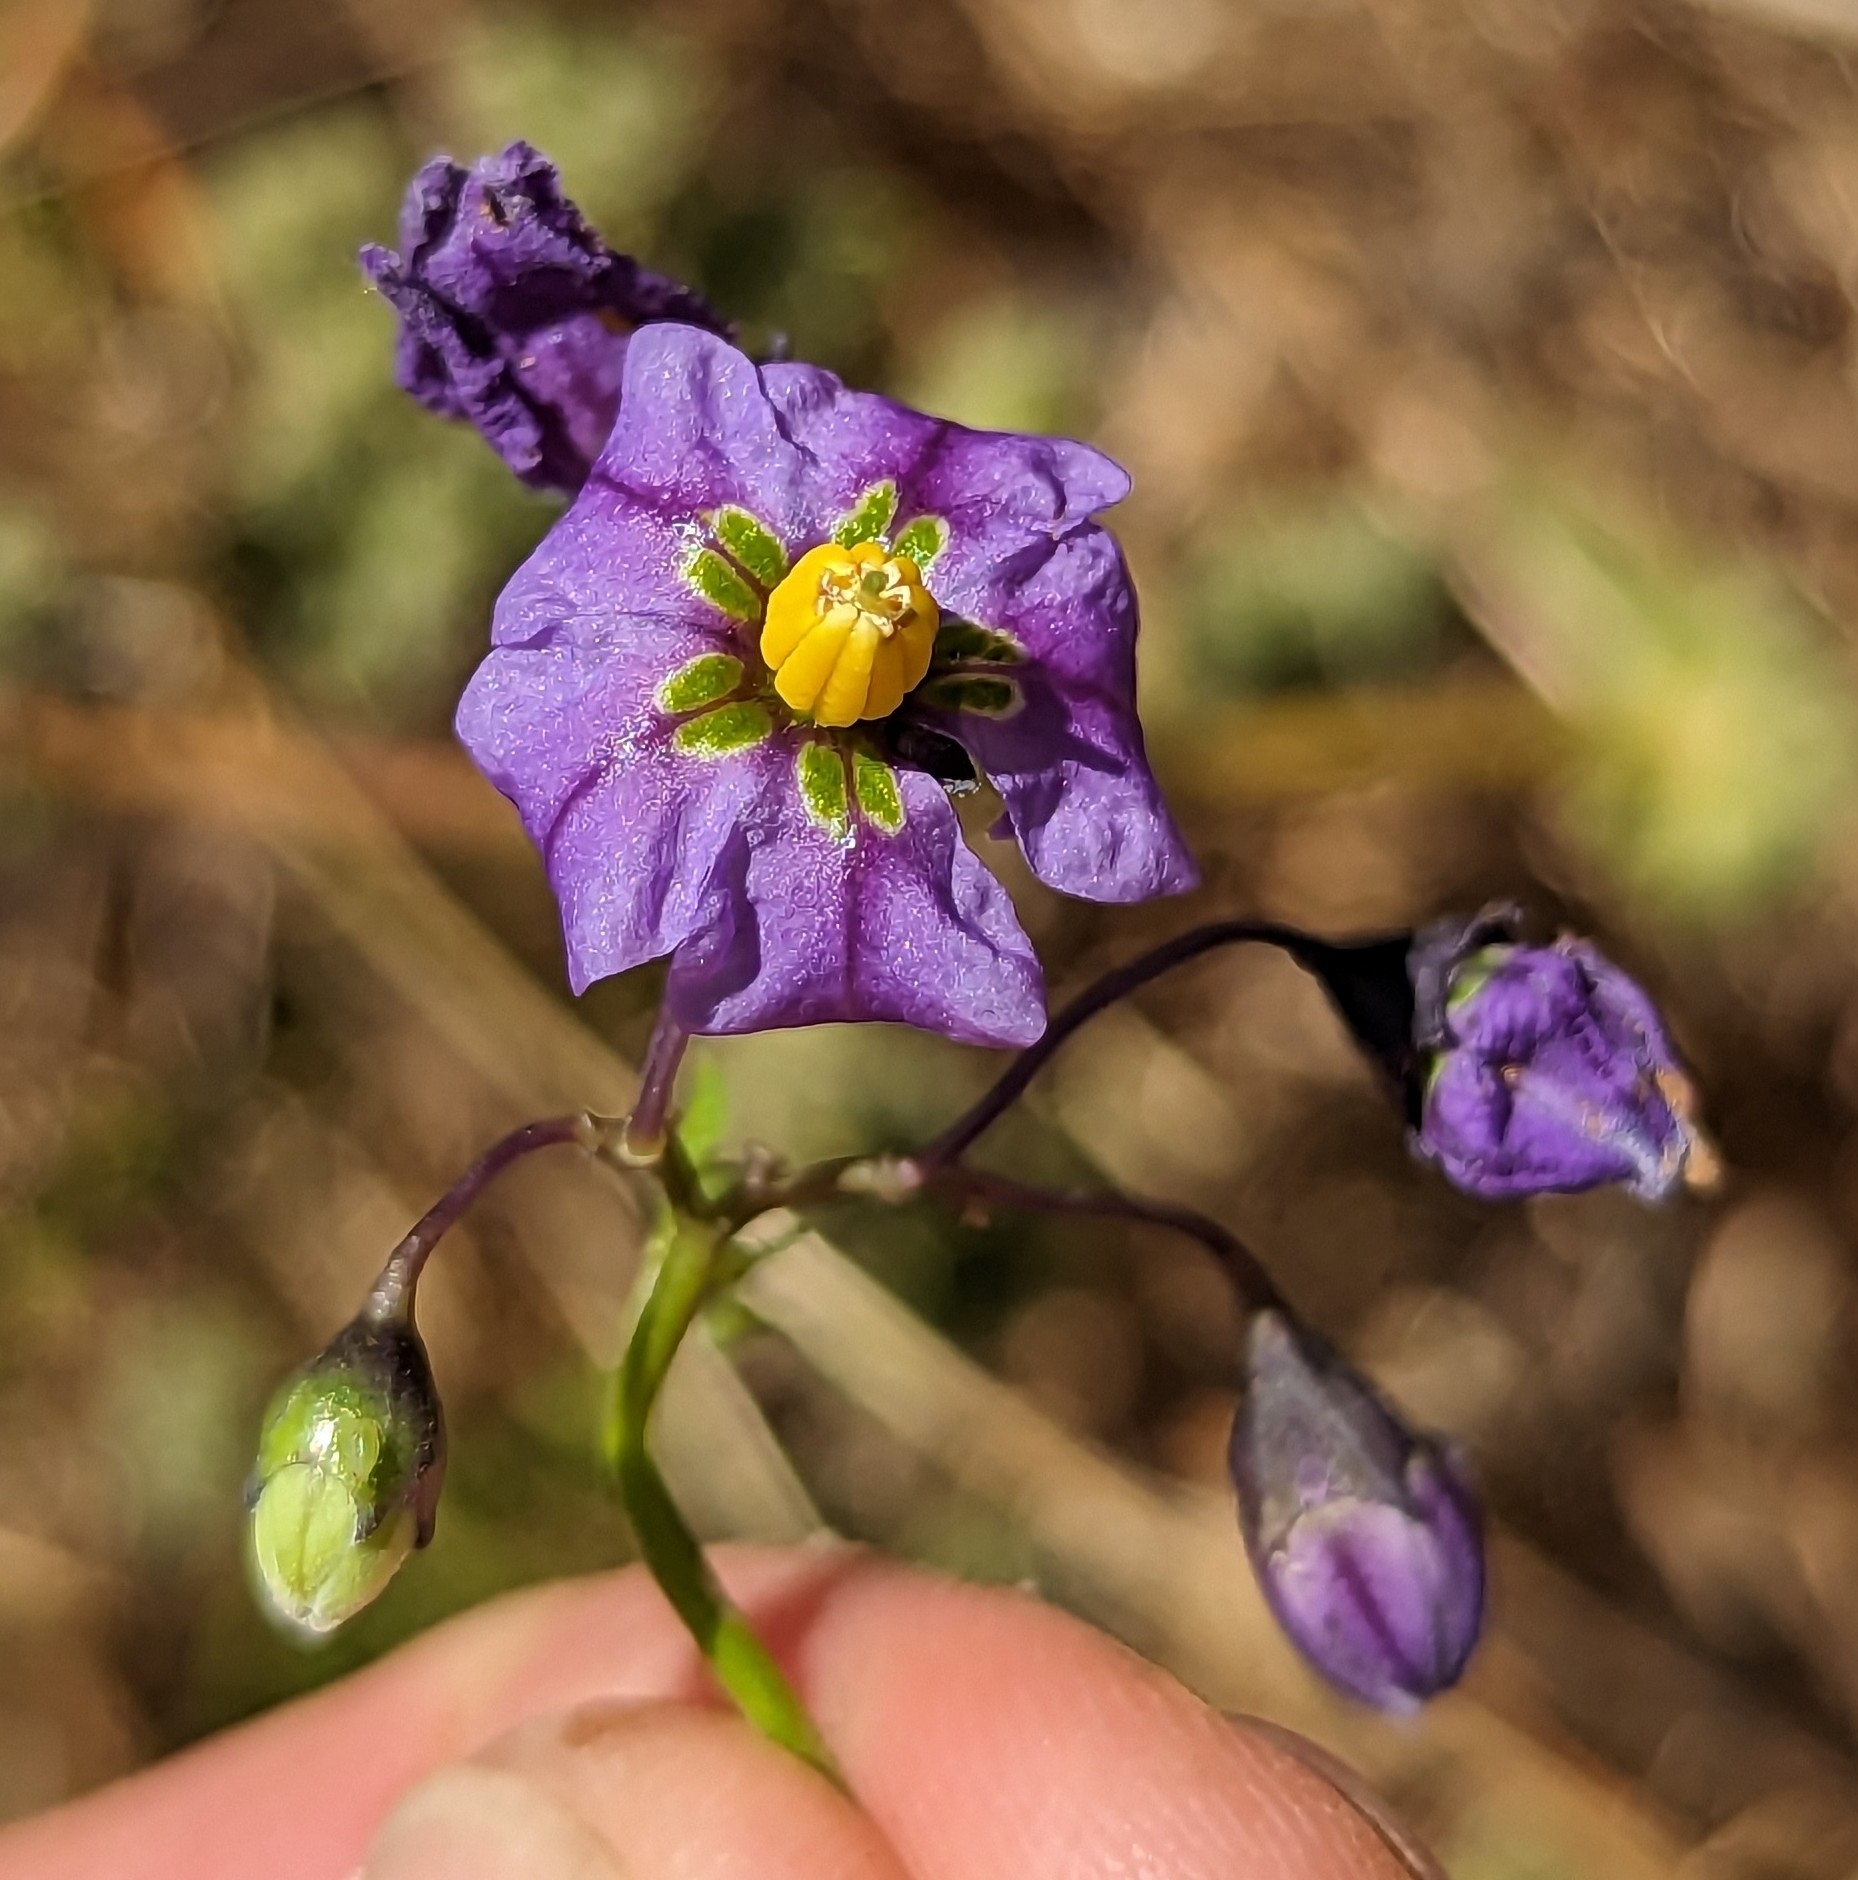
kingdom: Plantae
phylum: Tracheophyta
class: Magnoliopsida
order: Solanales
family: Solanaceae
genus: Solanum
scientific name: Solanum umbelliferum
